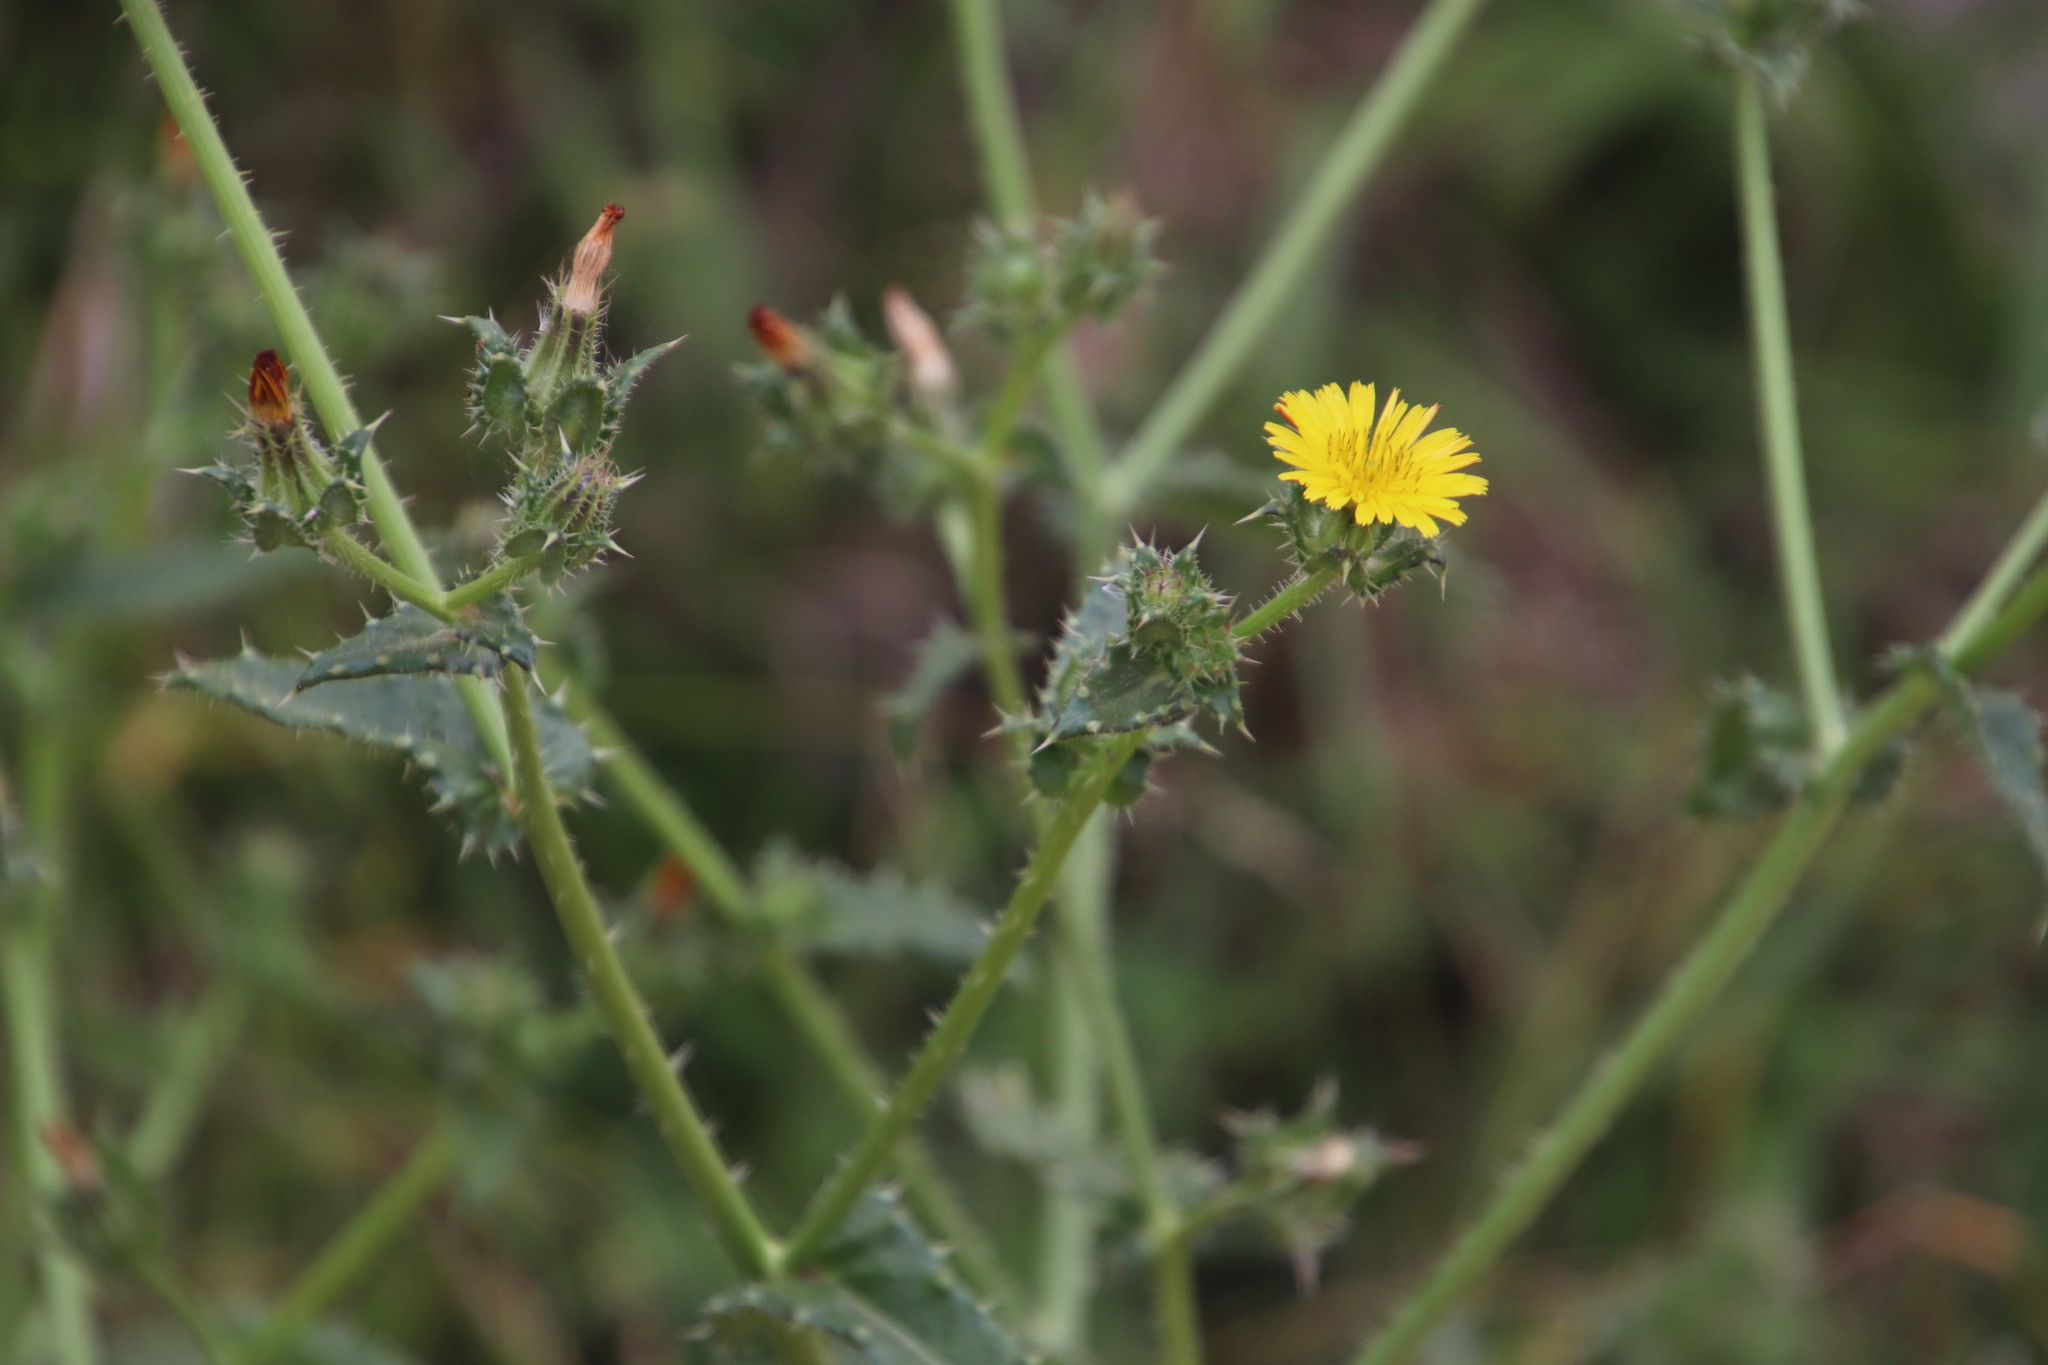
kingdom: Plantae
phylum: Tracheophyta
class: Magnoliopsida
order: Asterales
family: Asteraceae
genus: Helminthotheca
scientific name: Helminthotheca echioides
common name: Ox-tongue
